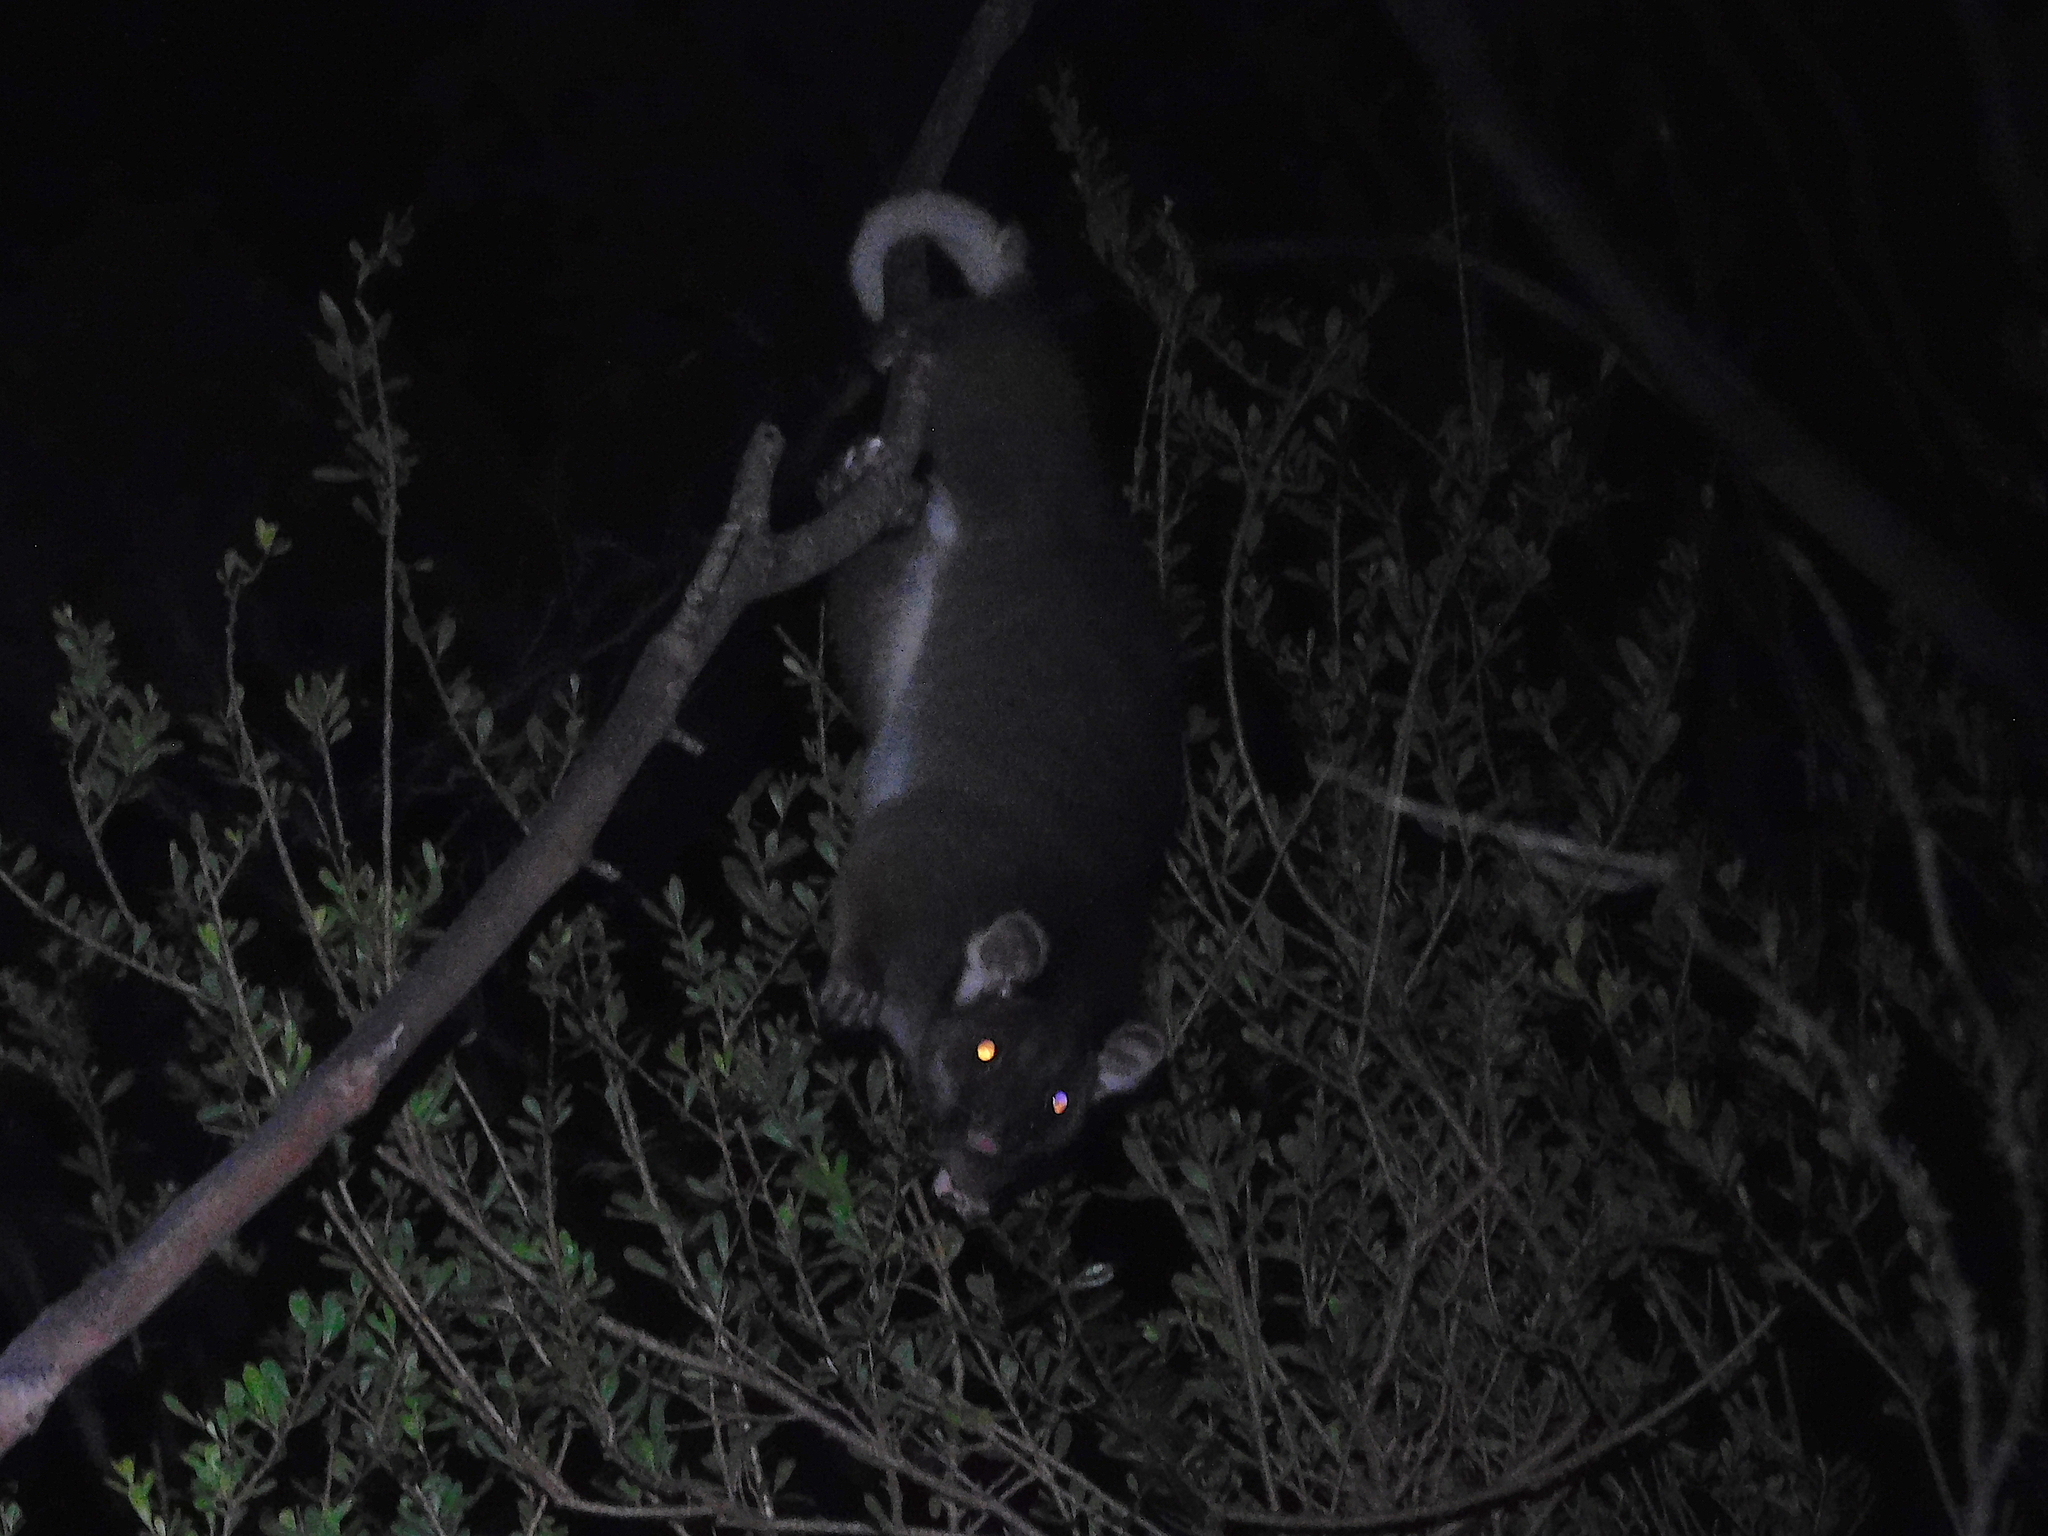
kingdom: Animalia
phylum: Chordata
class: Mammalia
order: Diprotodontia
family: Pseudocheiridae
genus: Pseudocheirus
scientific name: Pseudocheirus peregrinus
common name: Common ringtail possum
